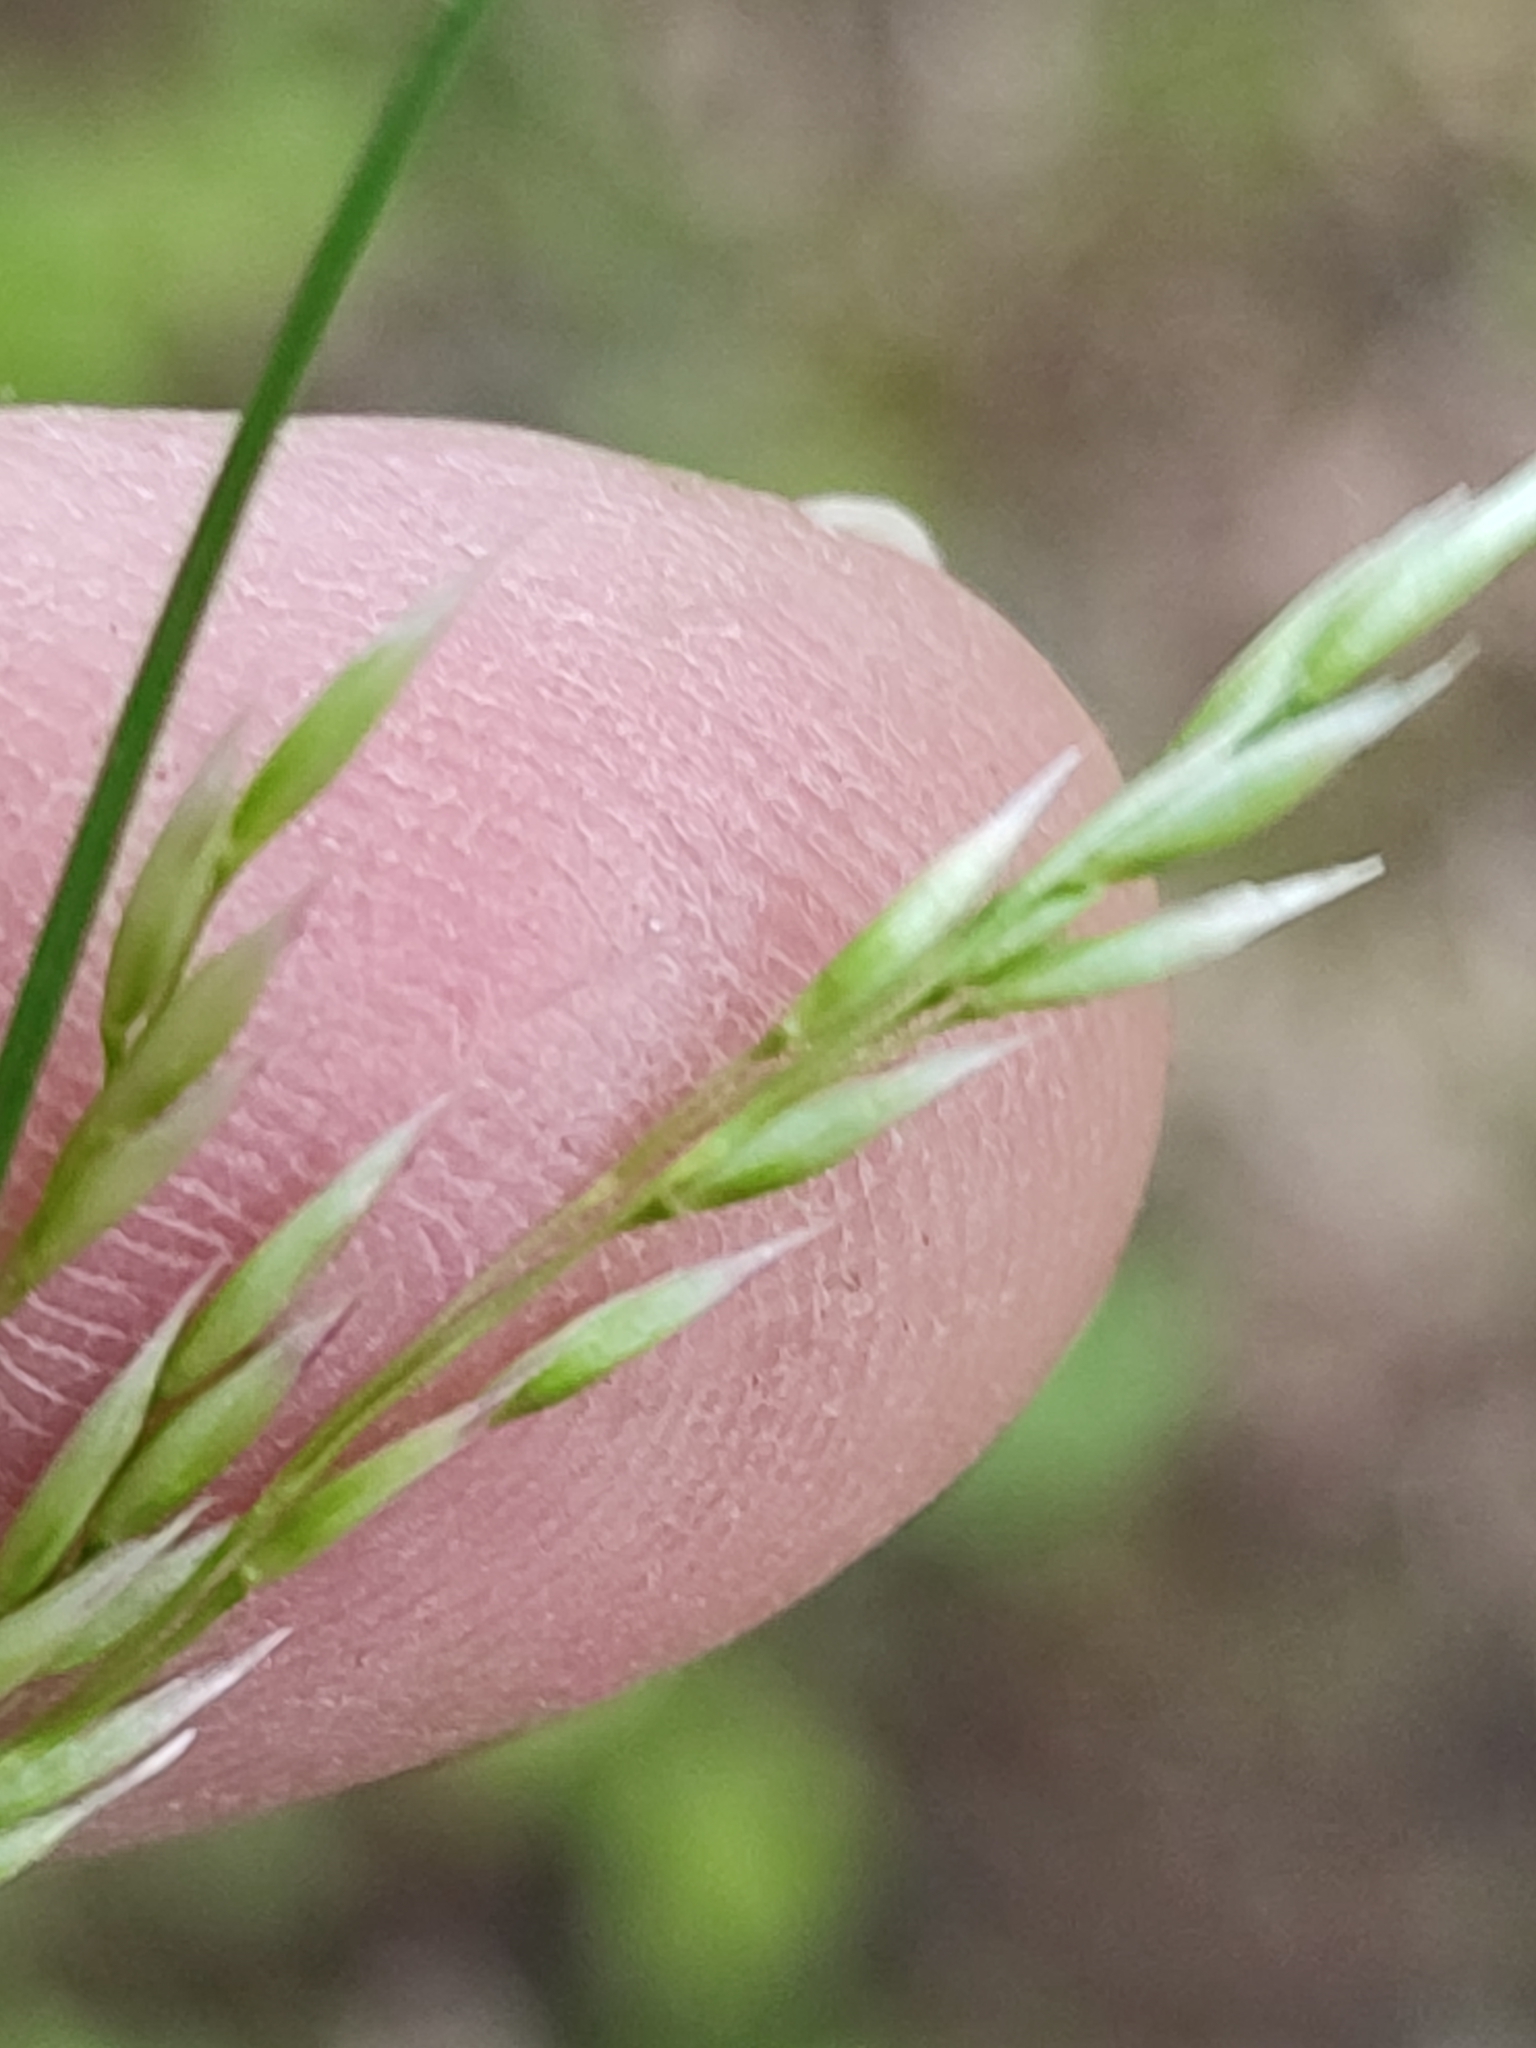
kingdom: Plantae
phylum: Tracheophyta
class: Liliopsida
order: Poales
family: Poaceae
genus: Avenella
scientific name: Avenella flexuosa
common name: Wavy hairgrass
